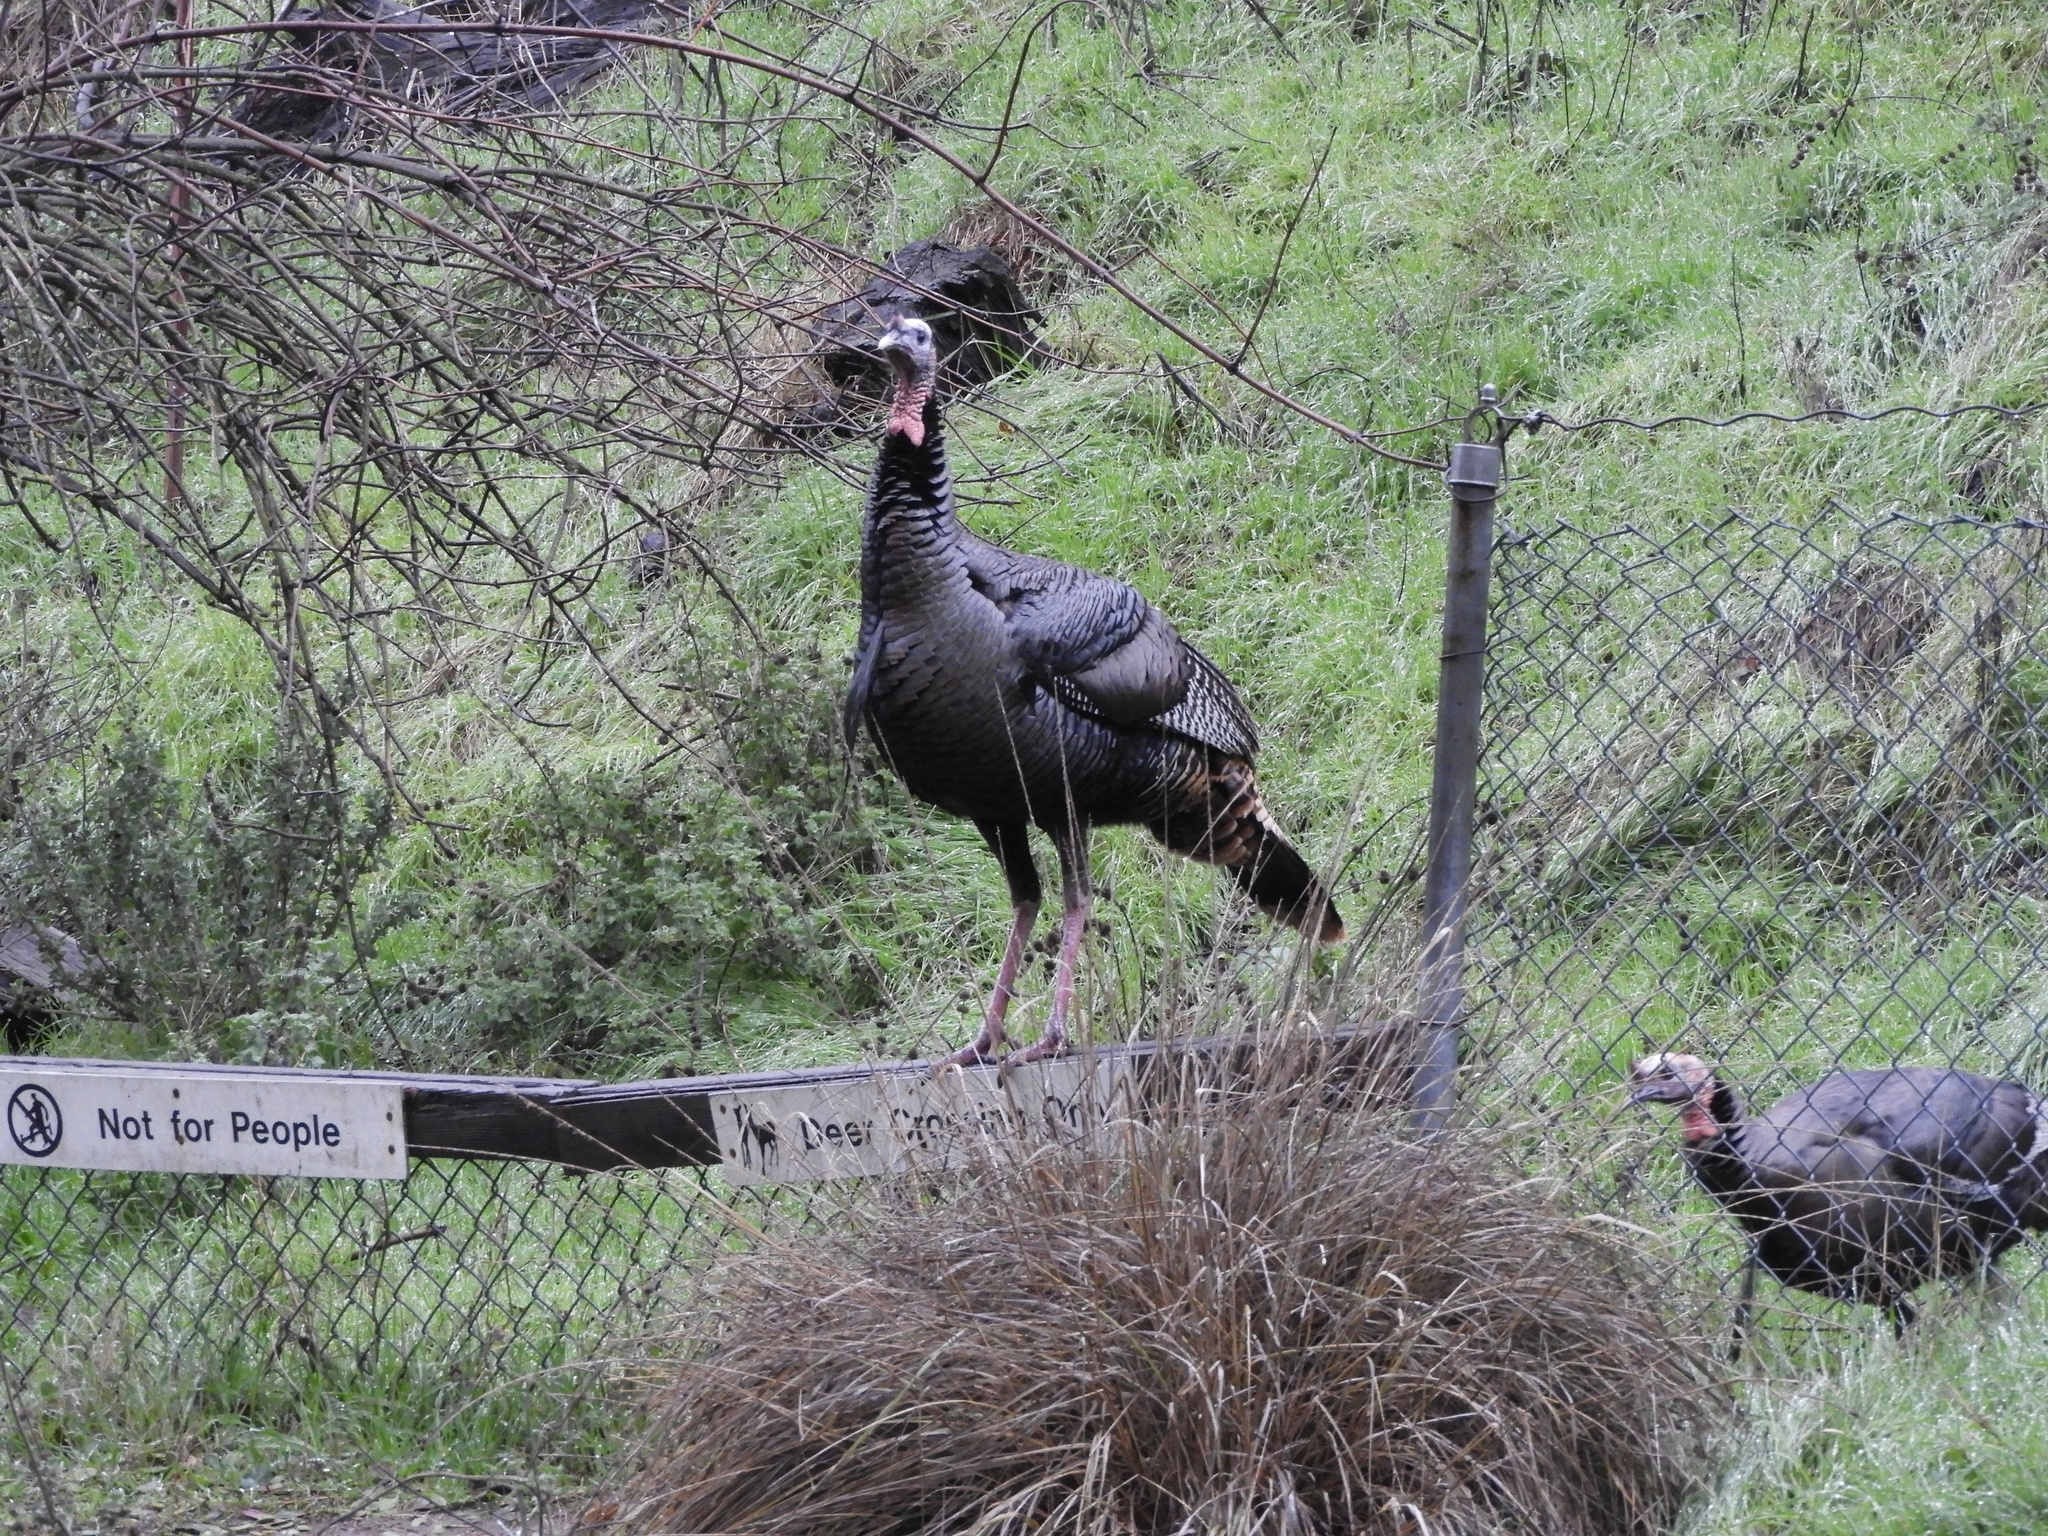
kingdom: Animalia
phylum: Chordata
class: Aves
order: Galliformes
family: Phasianidae
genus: Meleagris
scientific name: Meleagris gallopavo
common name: Wild turkey
